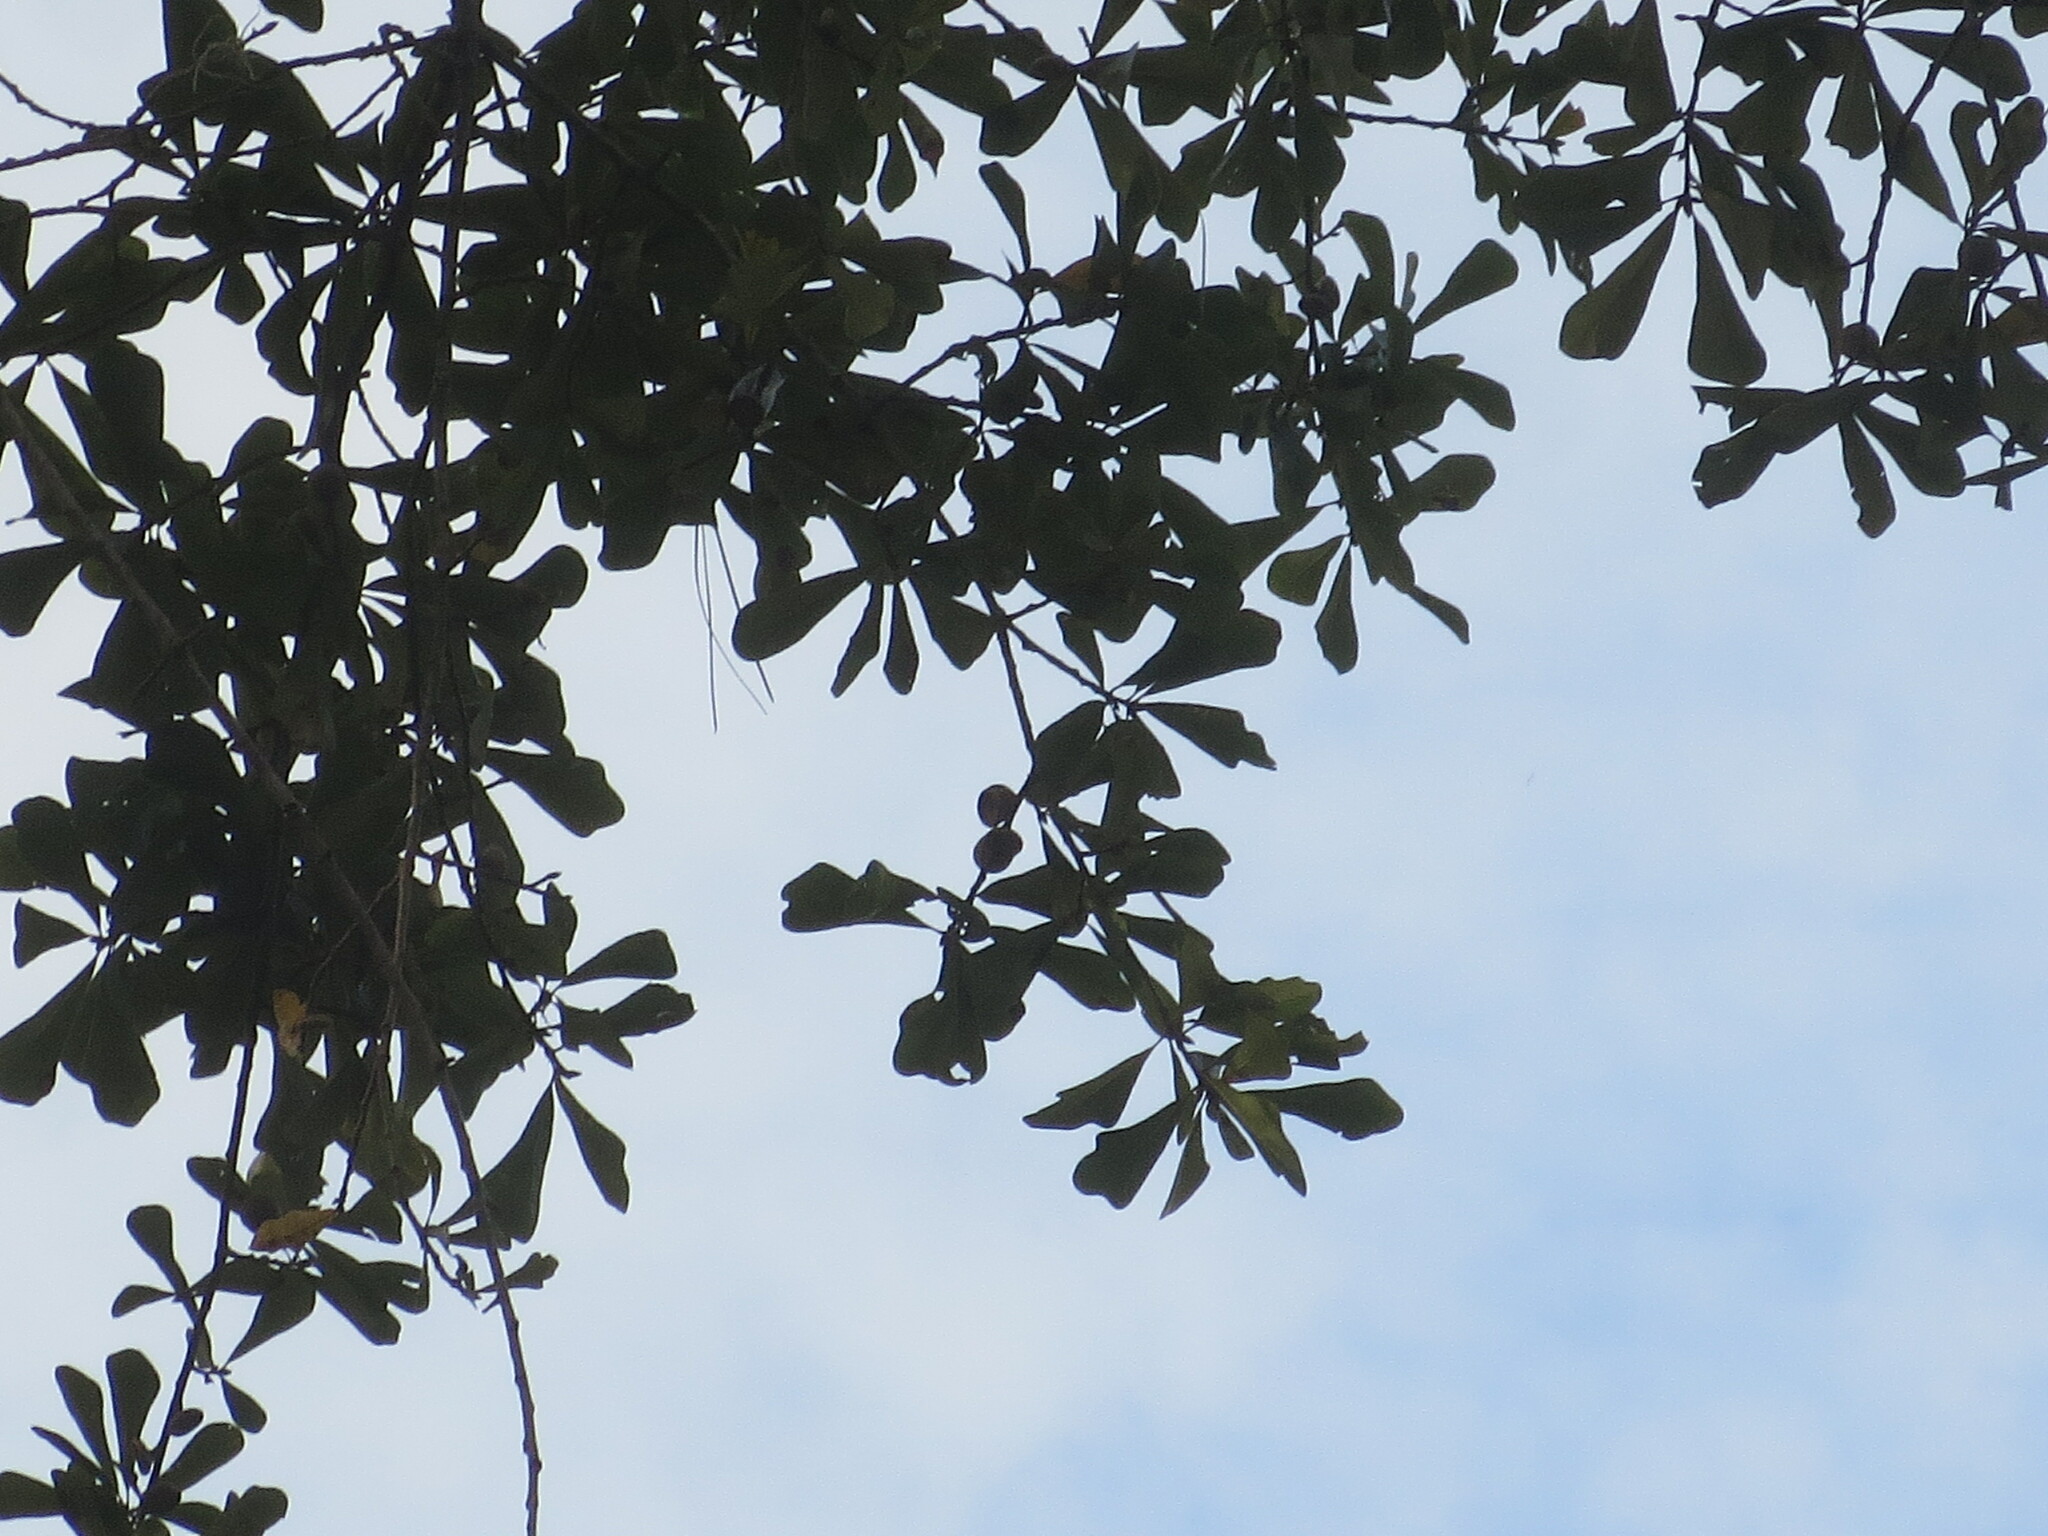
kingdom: Plantae
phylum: Tracheophyta
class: Magnoliopsida
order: Fagales
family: Fagaceae
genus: Quercus
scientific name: Quercus nigra
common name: Water oak
